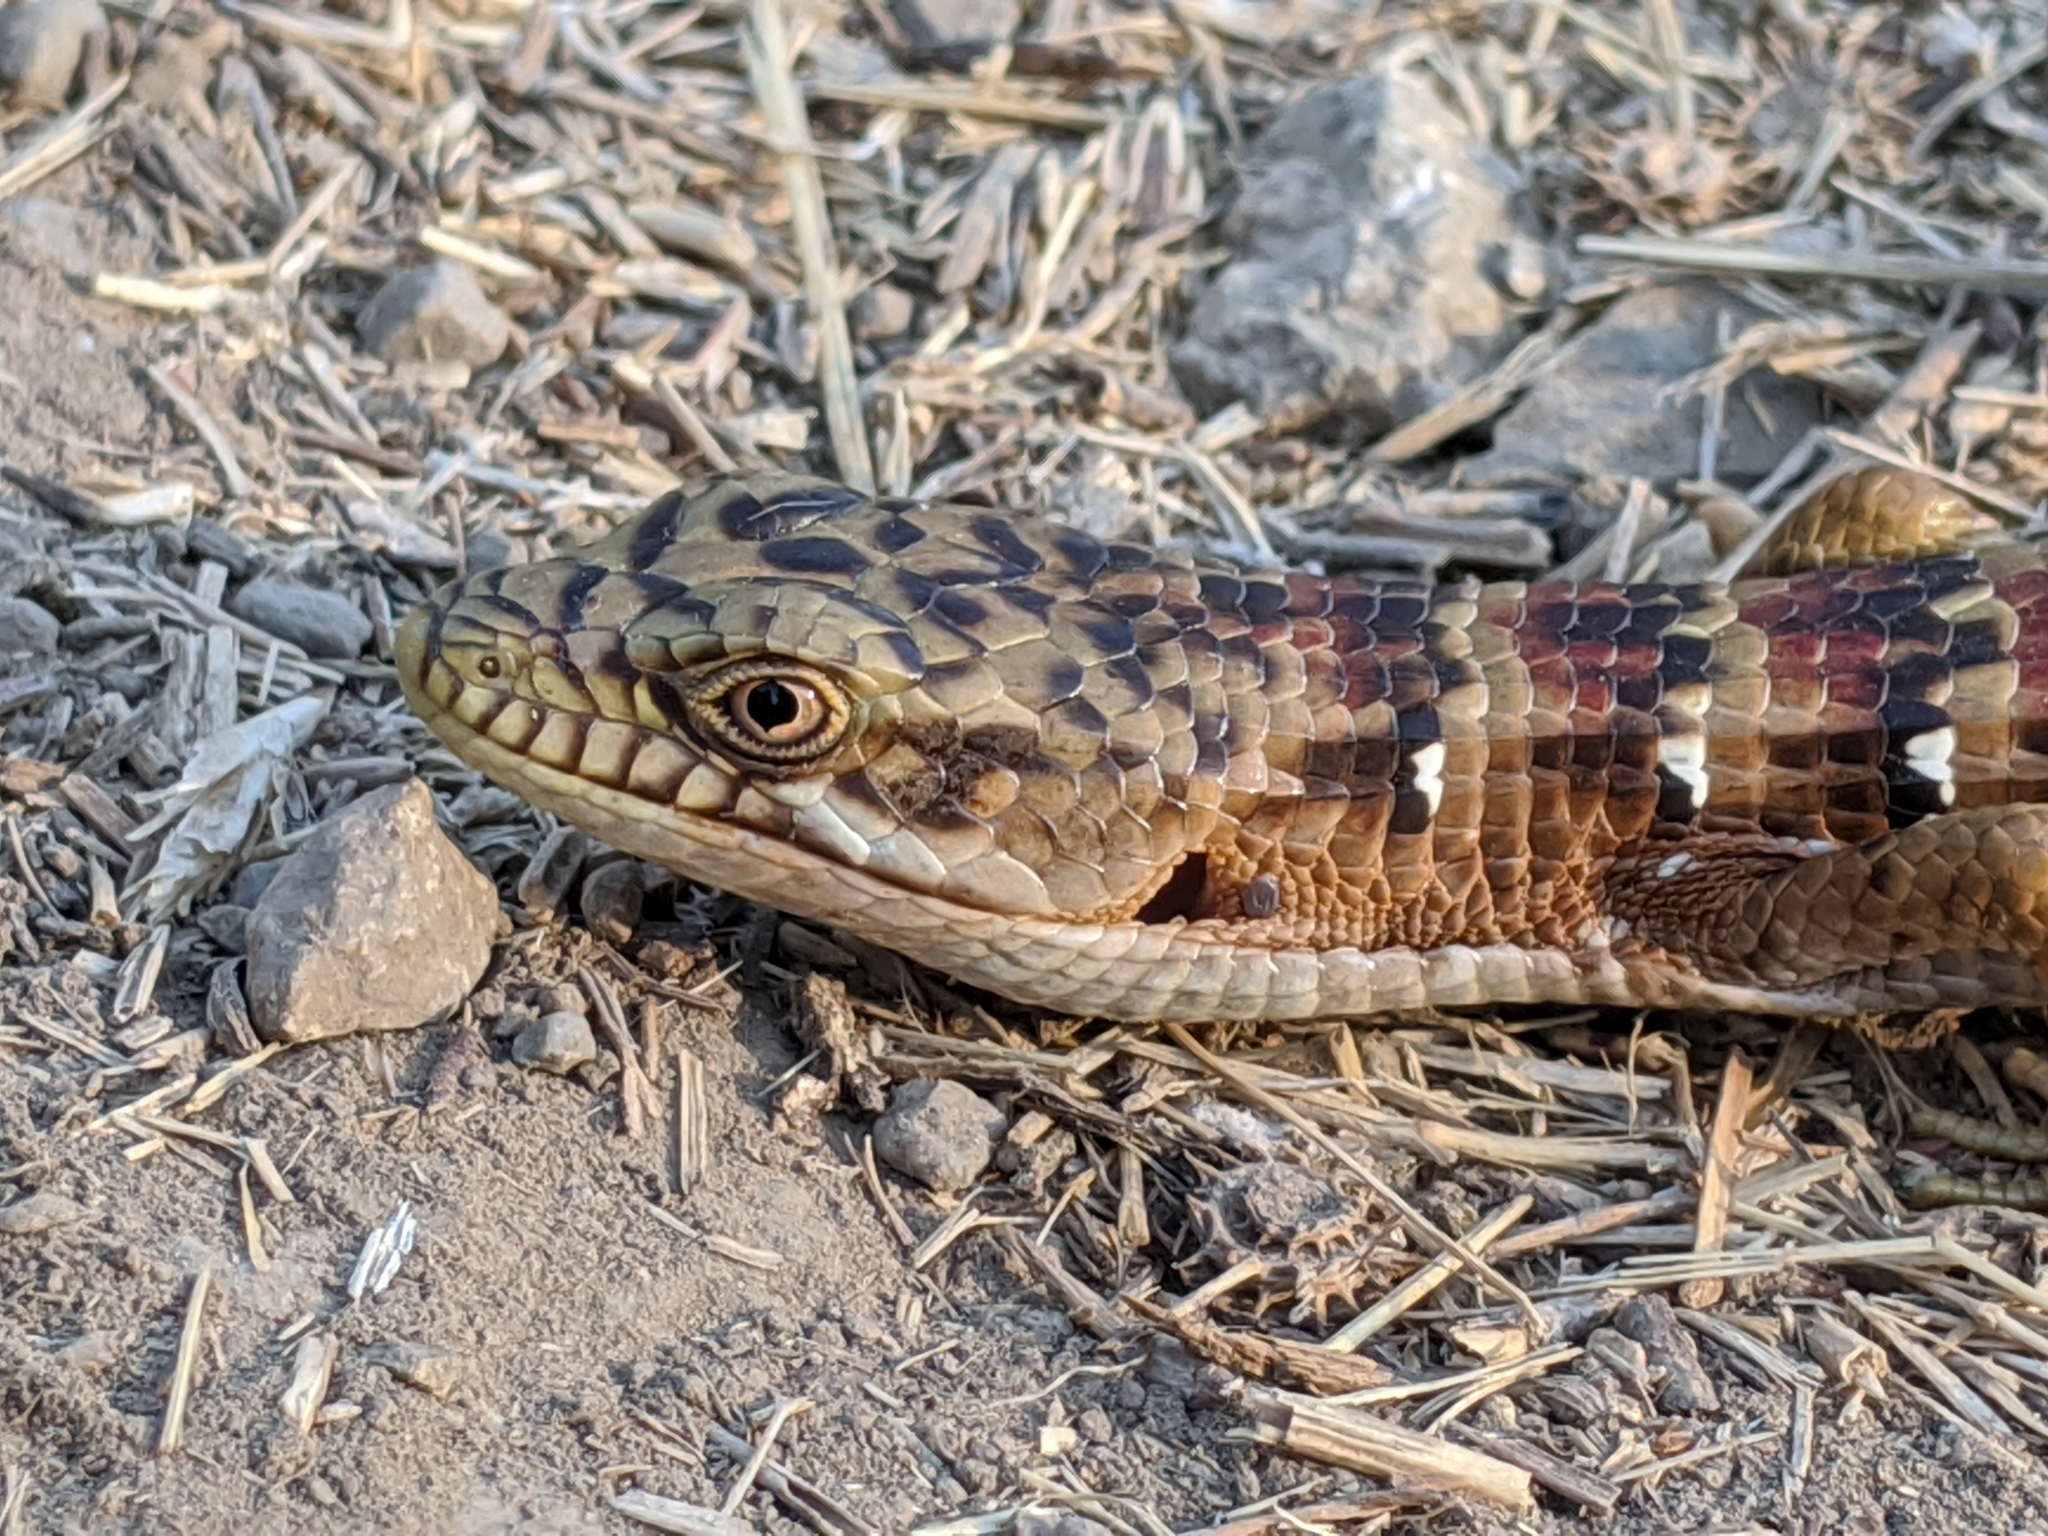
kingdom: Animalia
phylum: Chordata
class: Squamata
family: Anguidae
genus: Elgaria
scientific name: Elgaria multicarinata
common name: Southern alligator lizard
